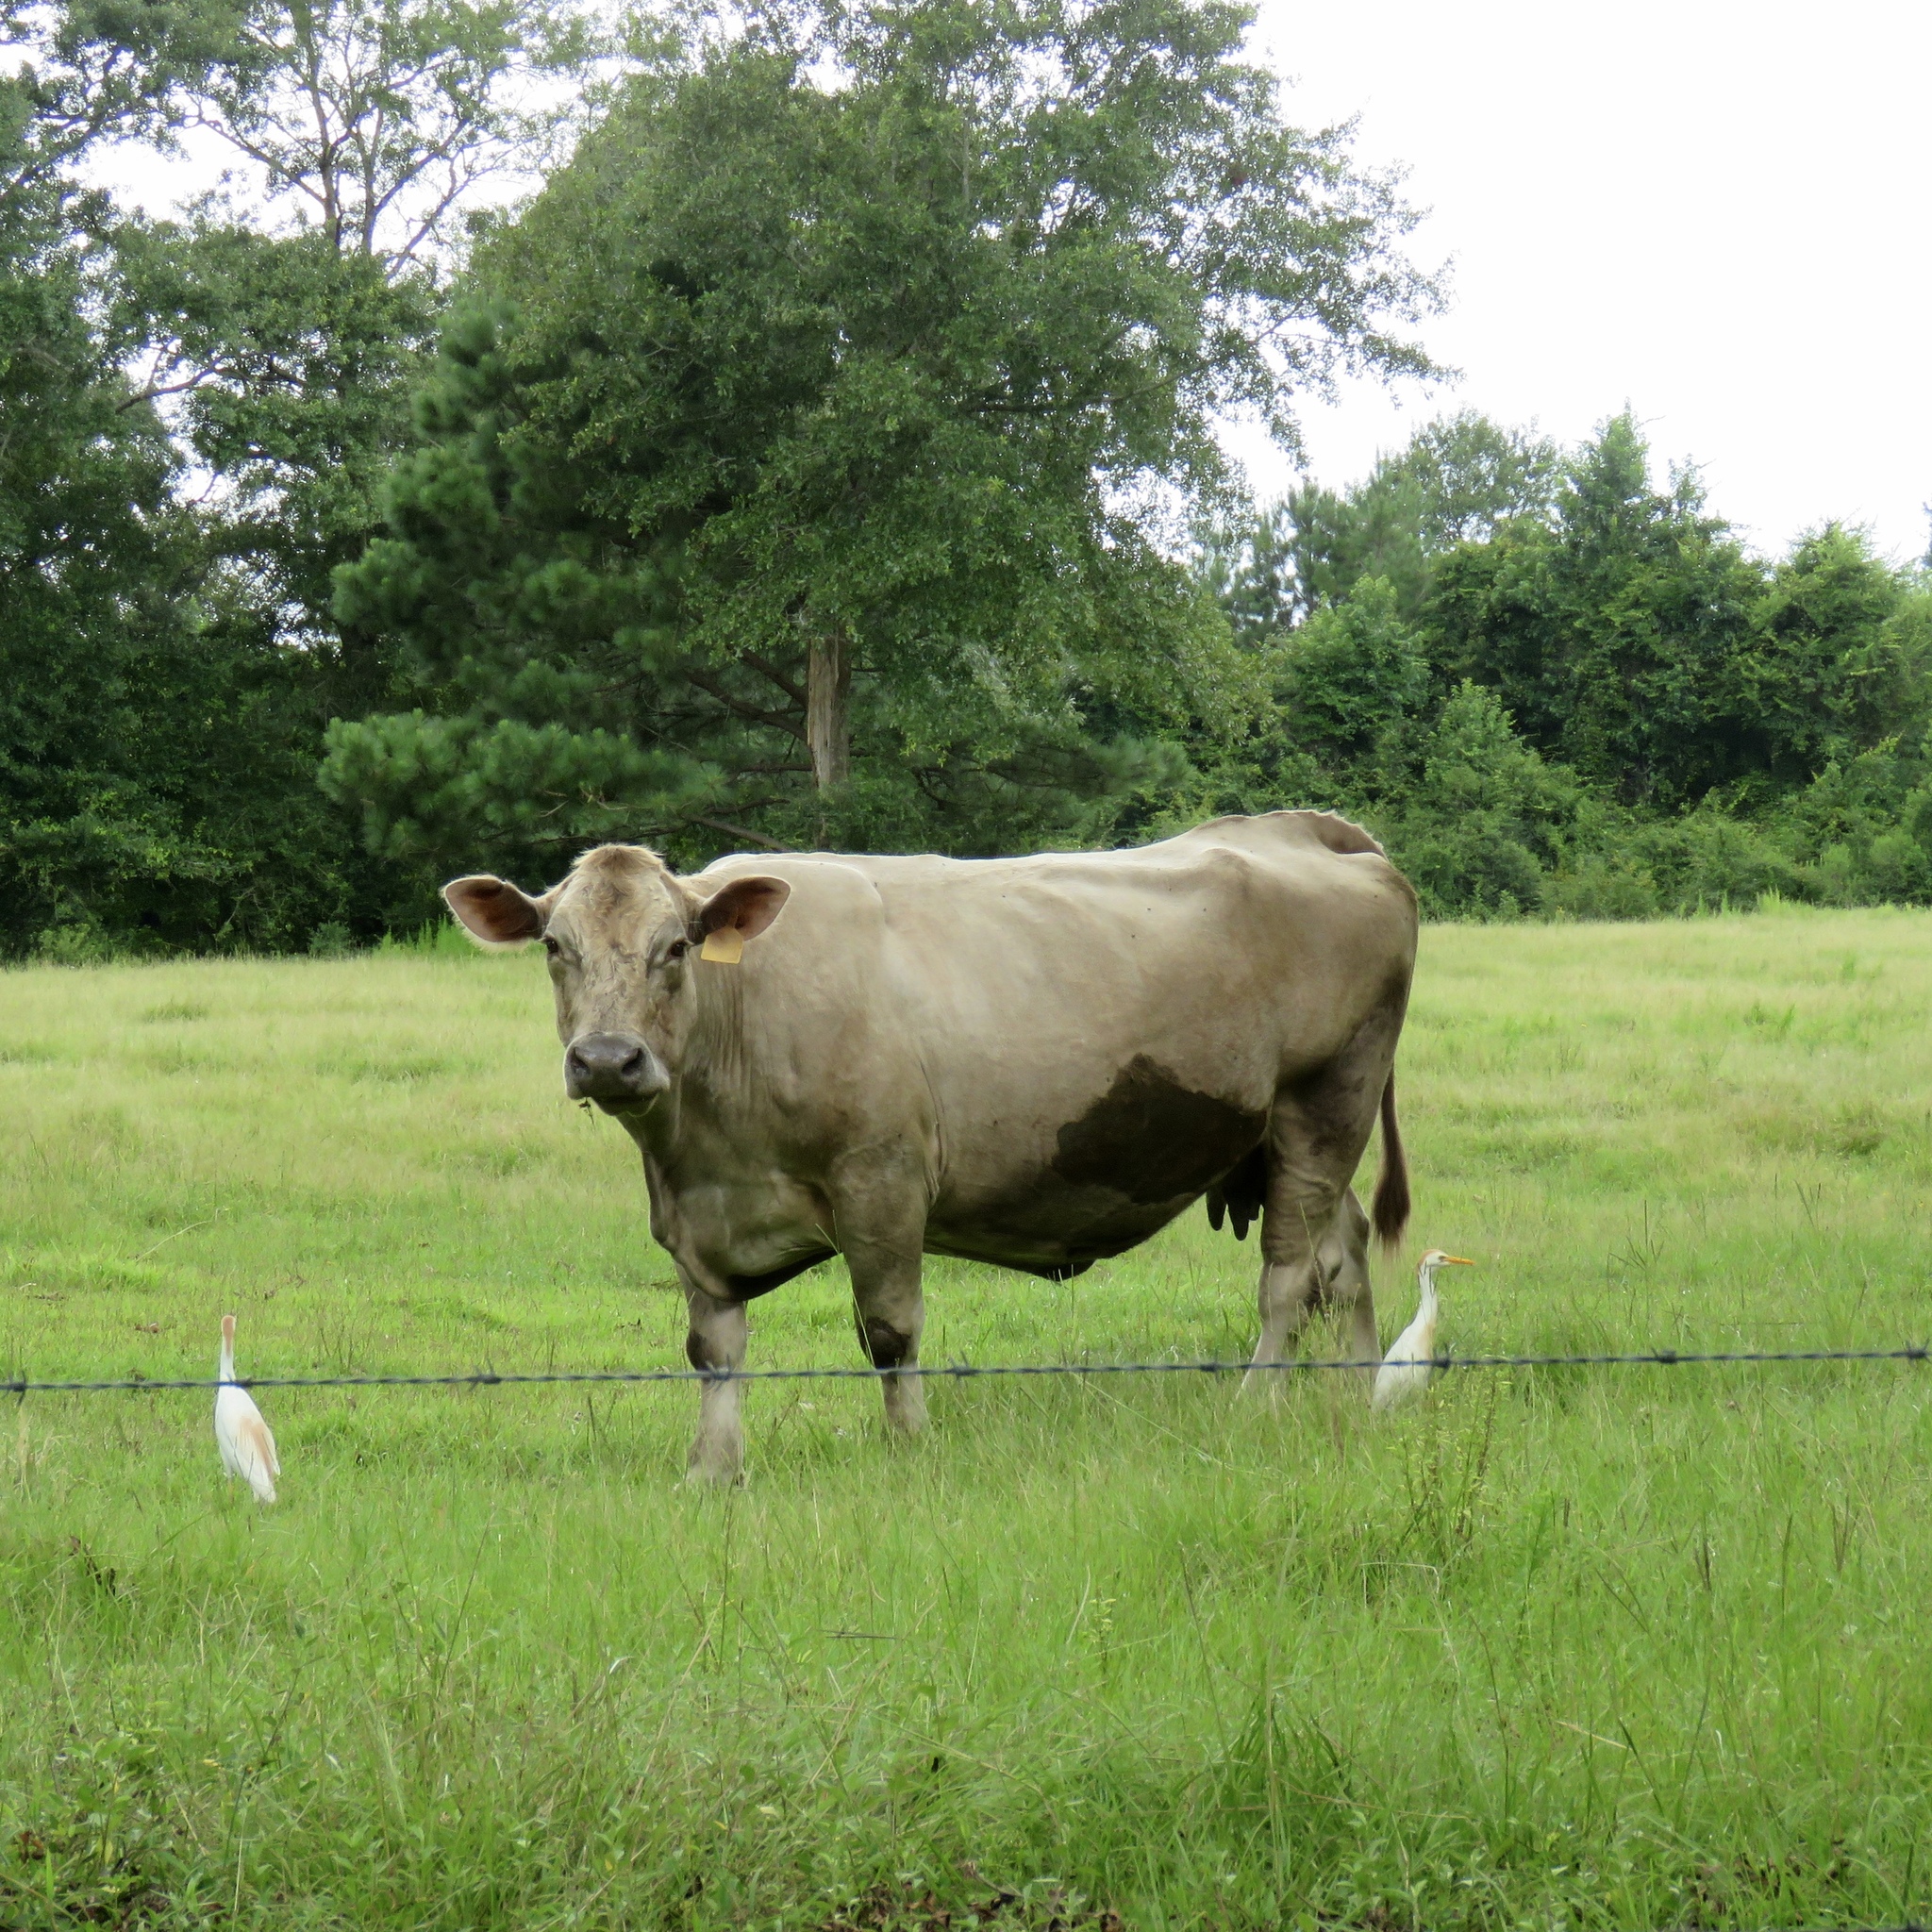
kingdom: Animalia
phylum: Chordata
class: Aves
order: Pelecaniformes
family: Ardeidae
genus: Bubulcus
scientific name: Bubulcus ibis
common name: Cattle egret
